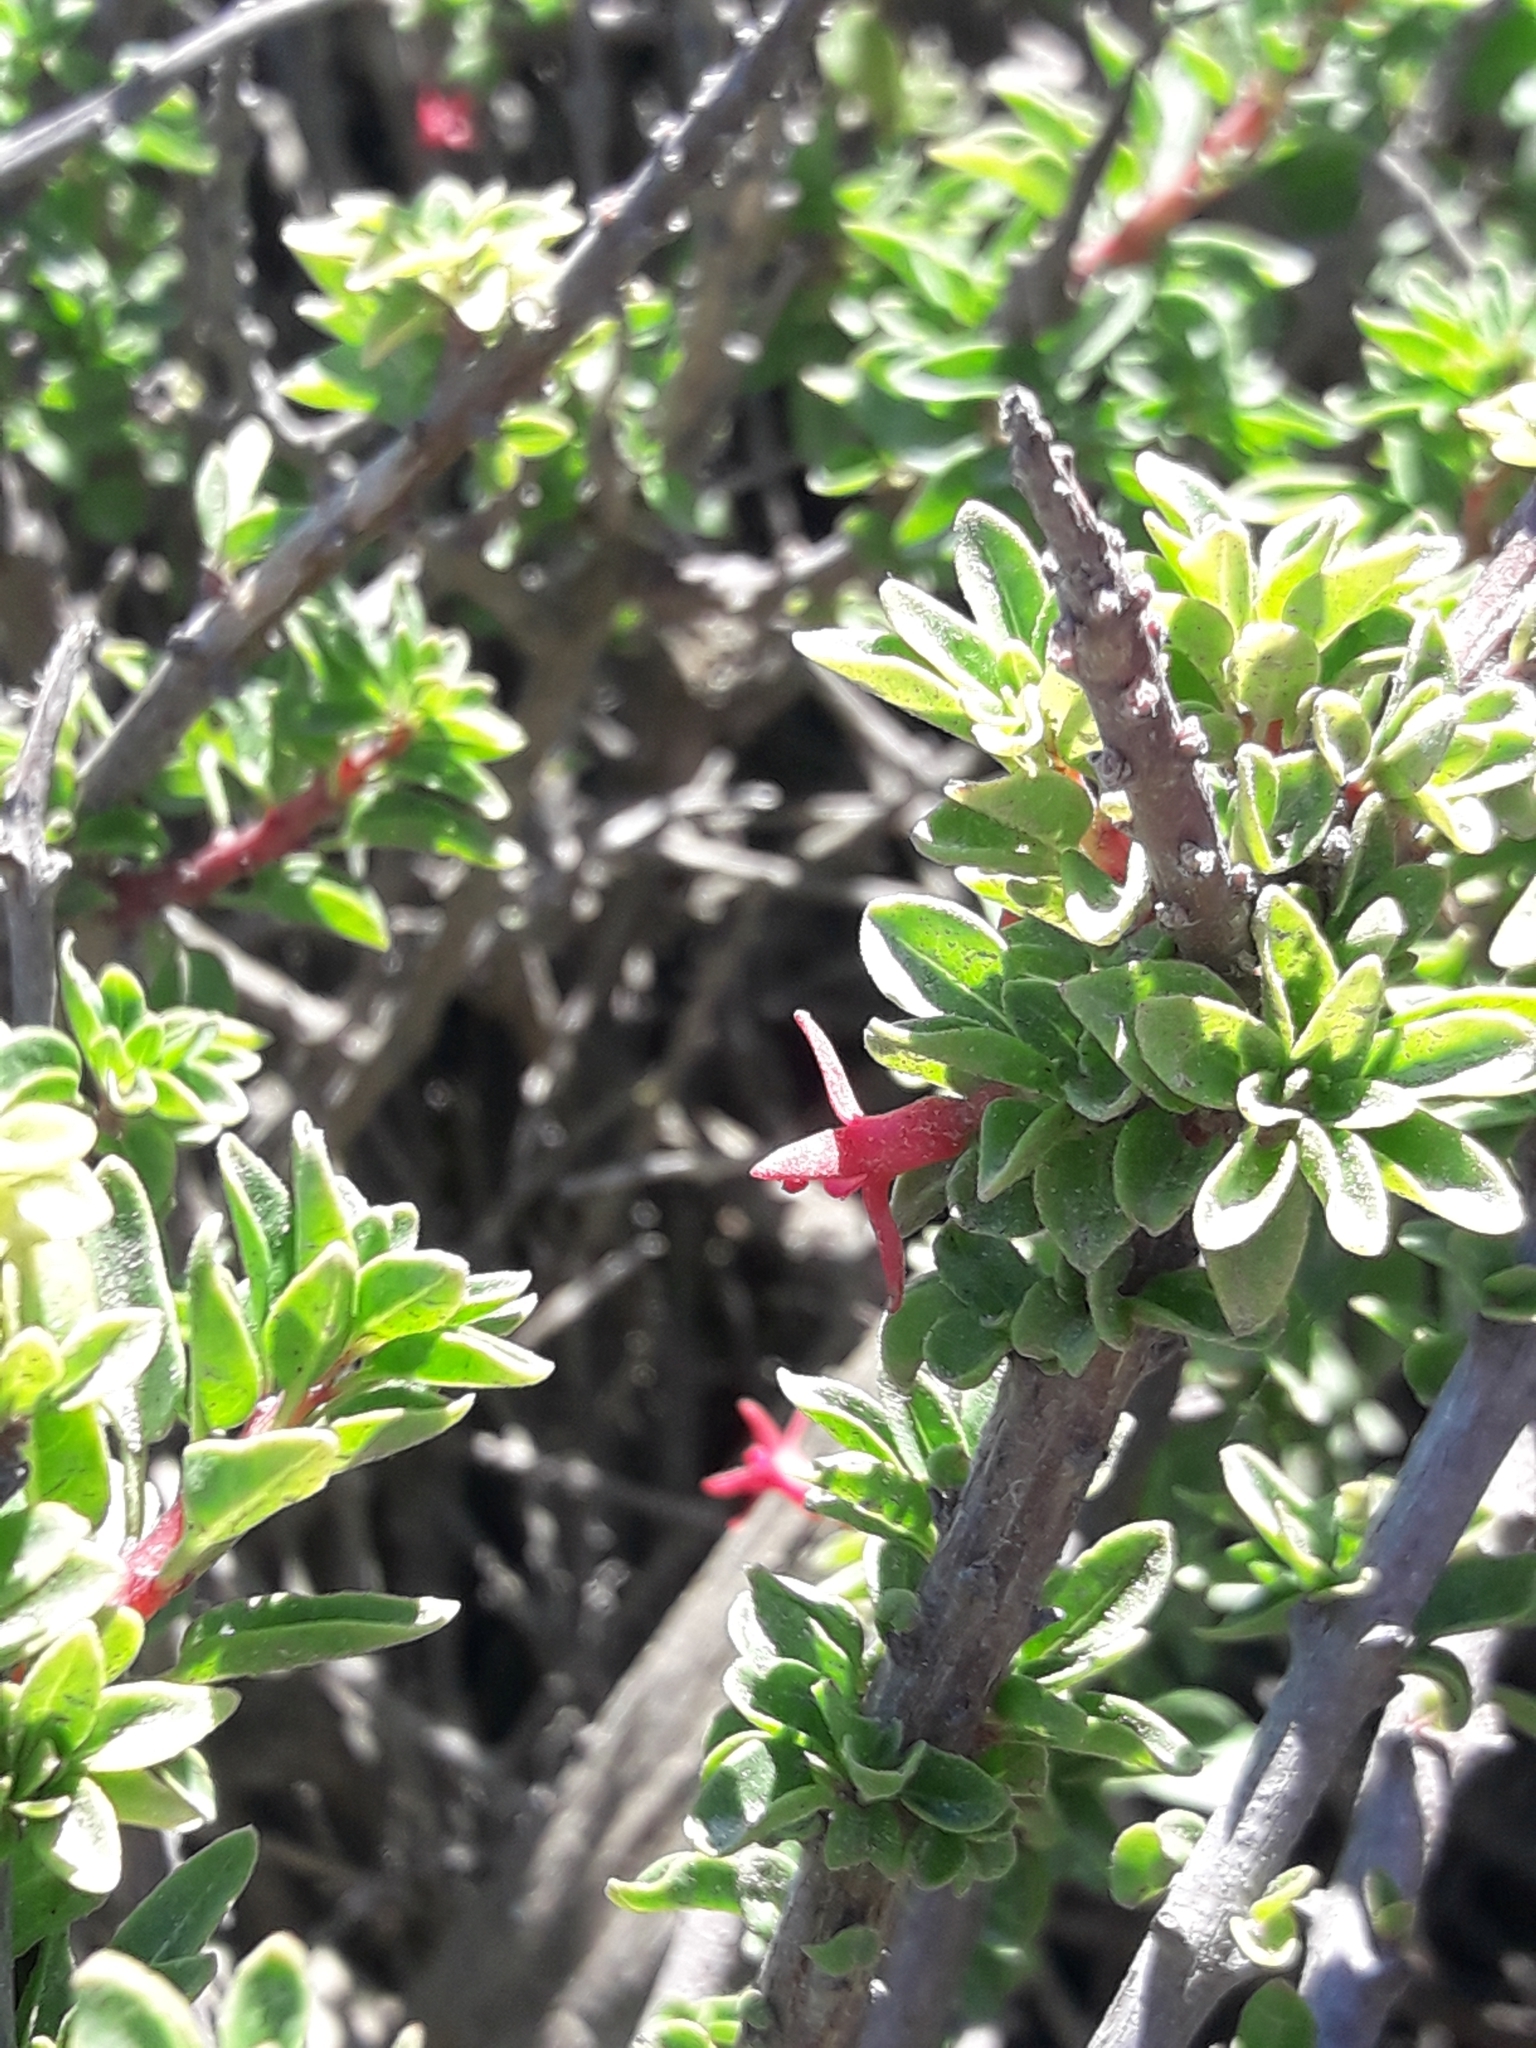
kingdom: Plantae
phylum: Tracheophyta
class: Magnoliopsida
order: Myrtales
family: Onagraceae
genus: Fuchsia
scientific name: Fuchsia lycioides
